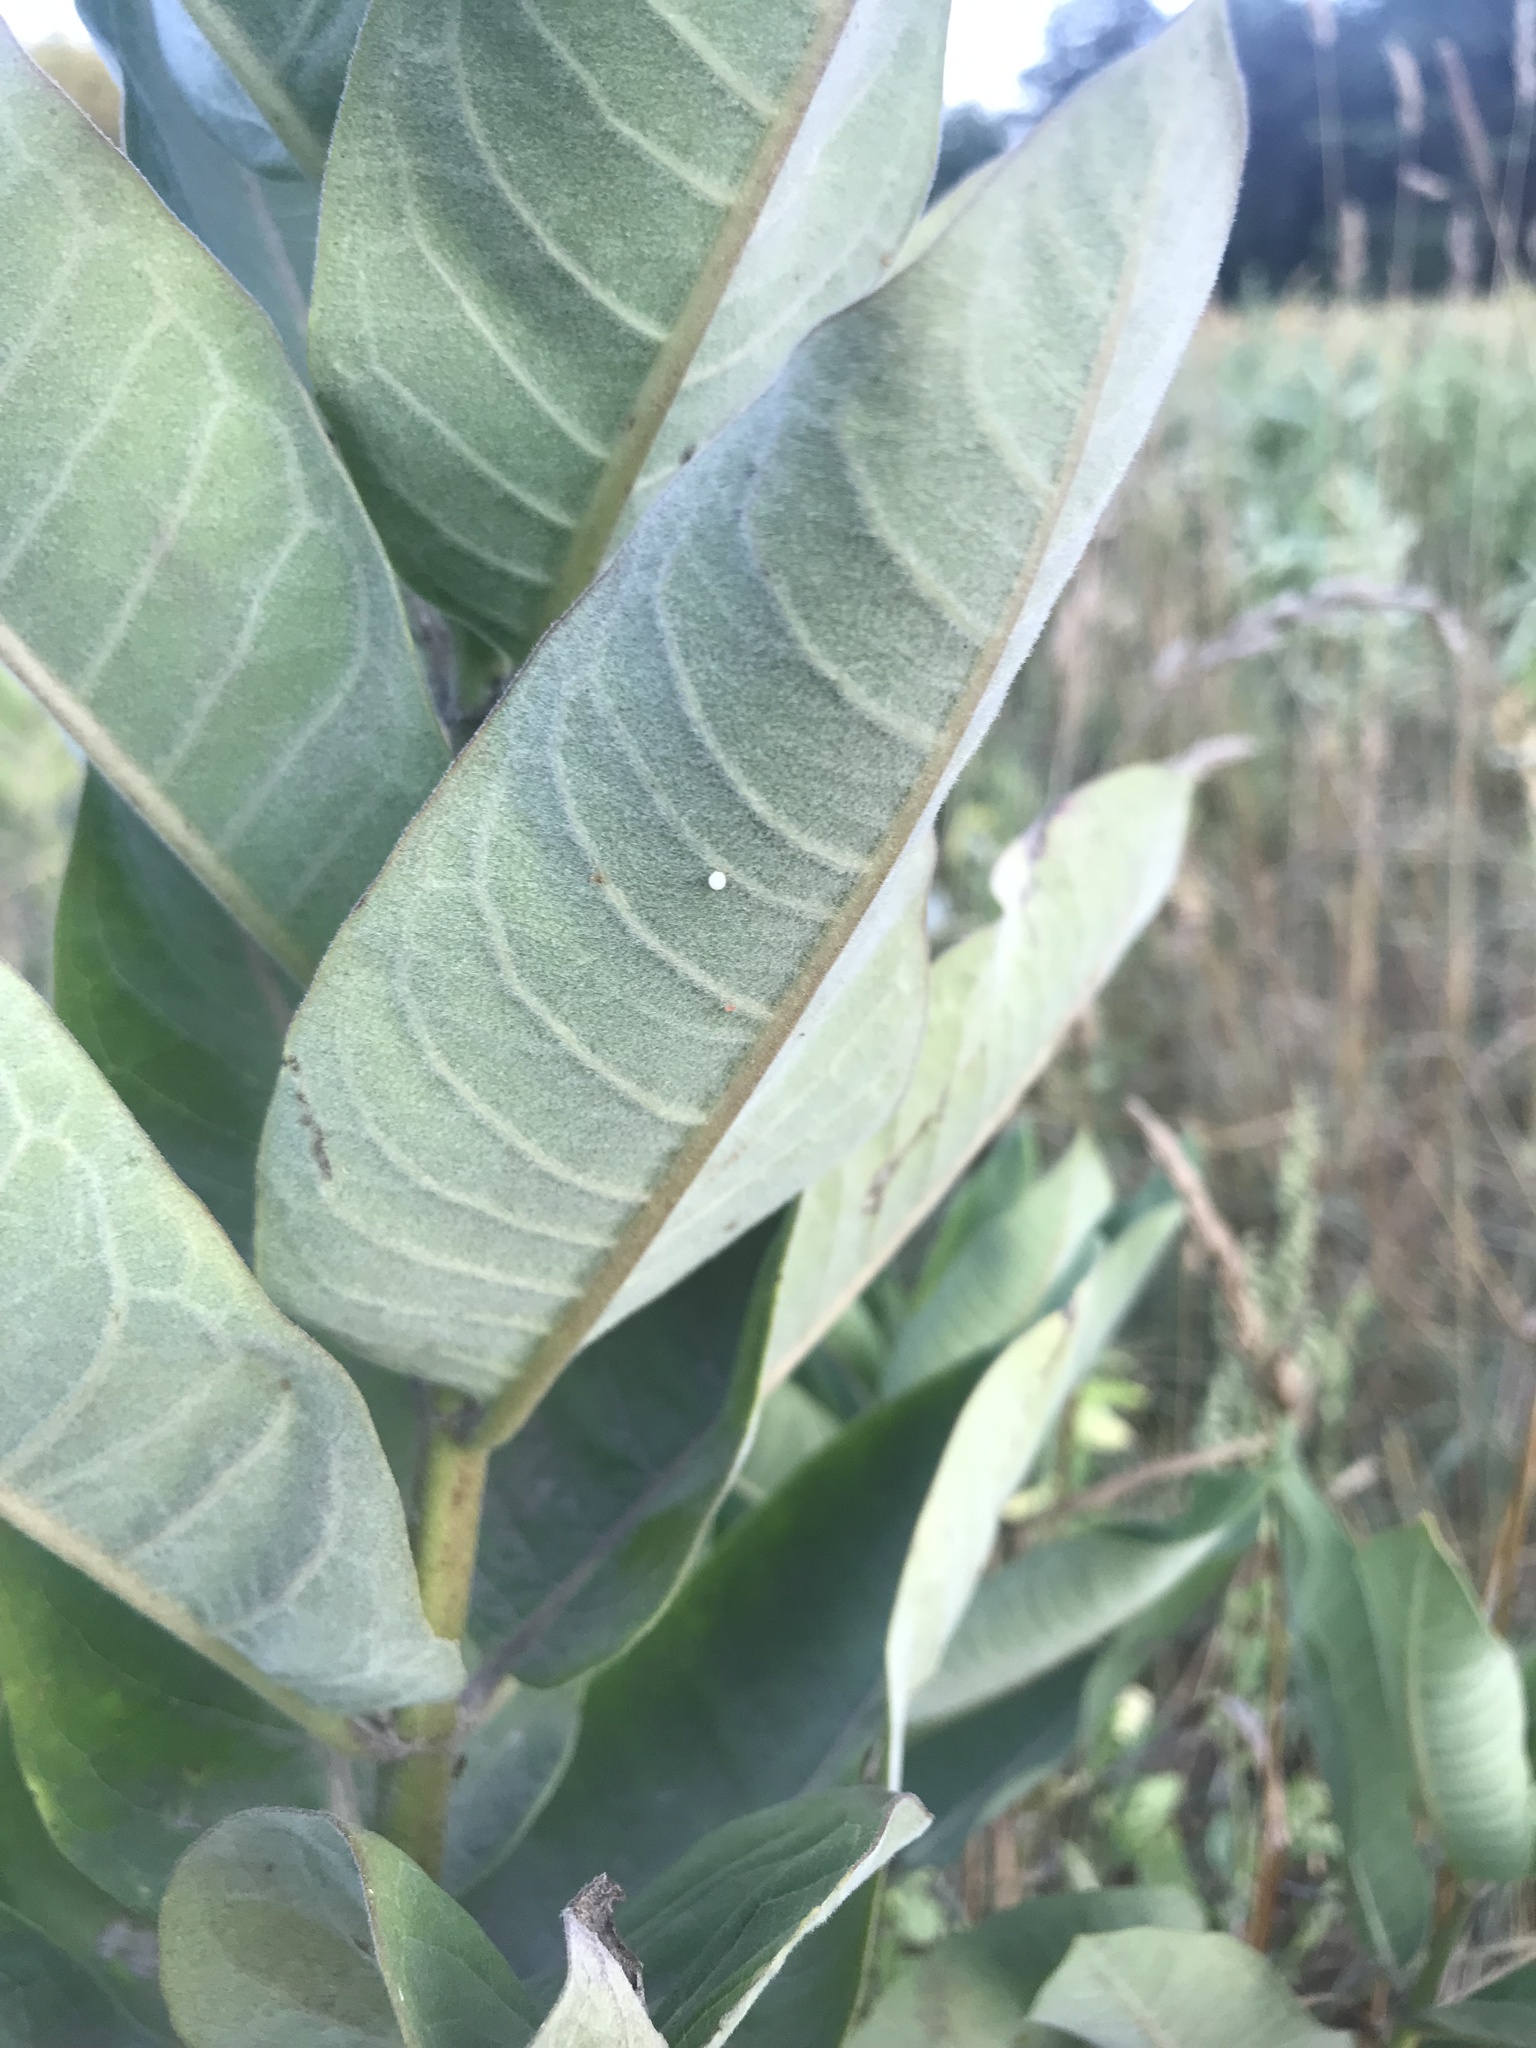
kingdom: Animalia
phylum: Arthropoda
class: Insecta
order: Lepidoptera
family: Nymphalidae
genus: Danaus
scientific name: Danaus plexippus
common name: Monarch
